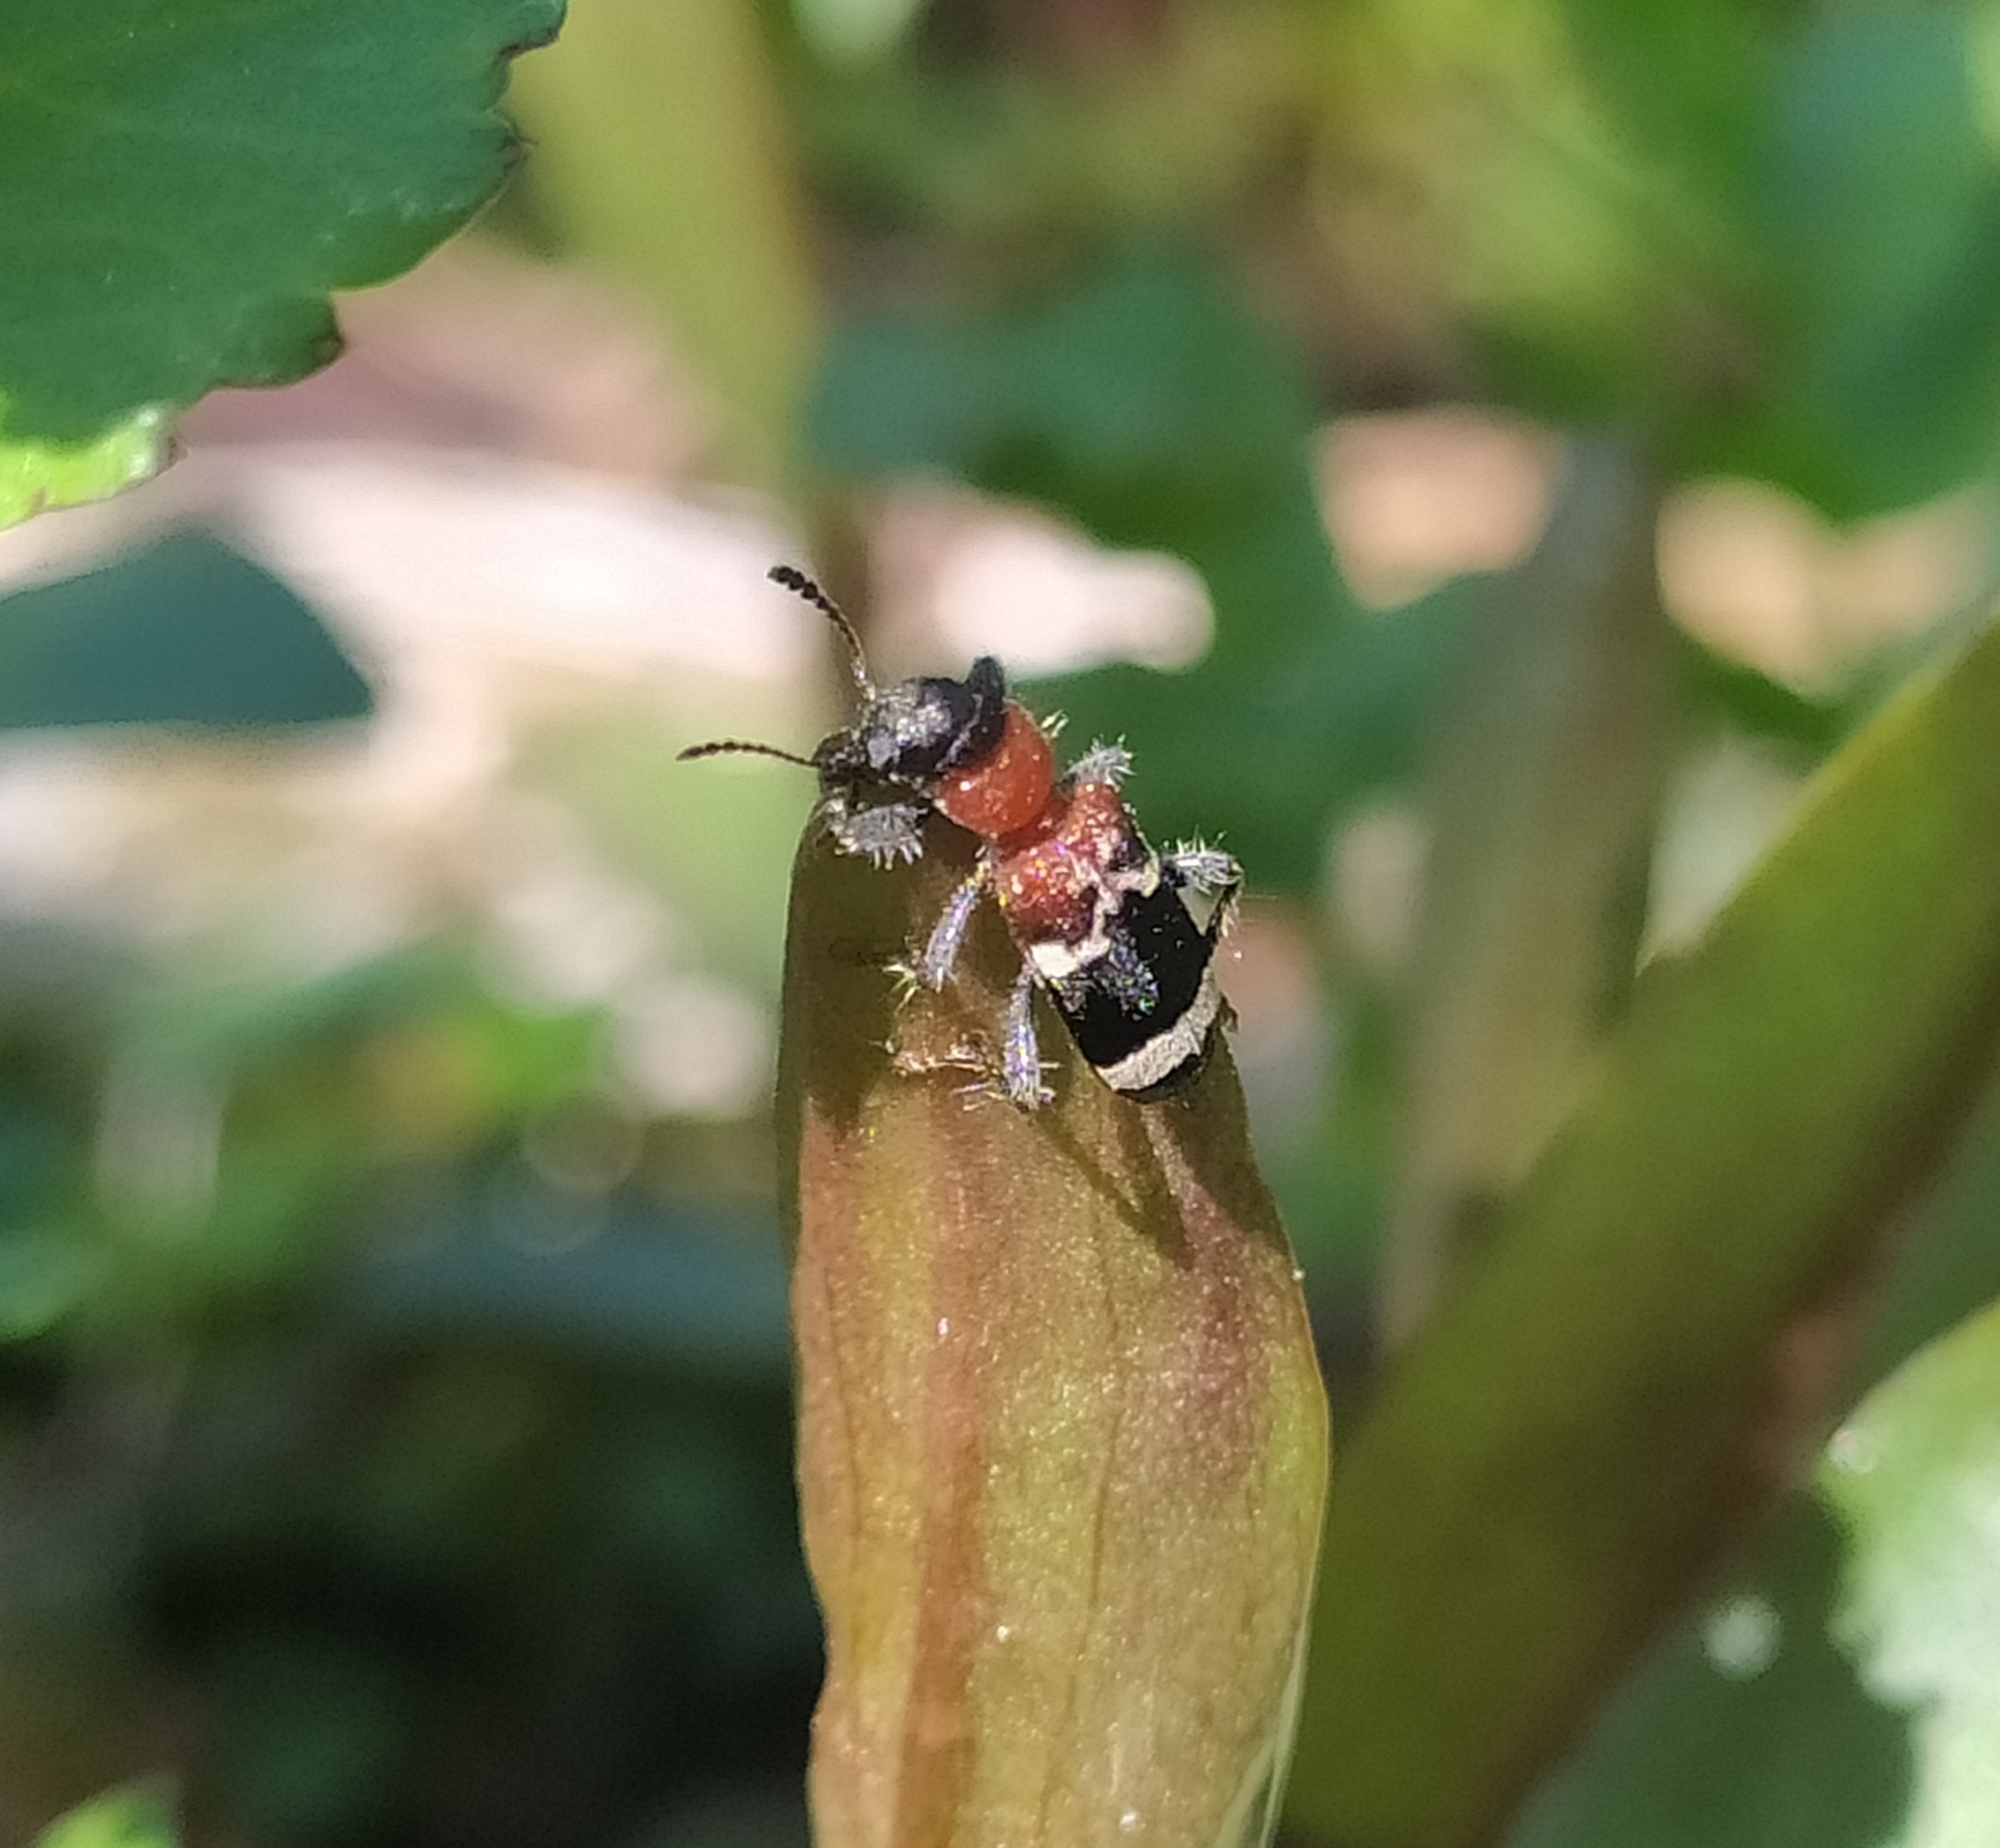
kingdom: Animalia
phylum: Arthropoda
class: Insecta
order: Coleoptera
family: Cleridae
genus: Thanasimus
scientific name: Thanasimus formicarius
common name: Ant beetle
